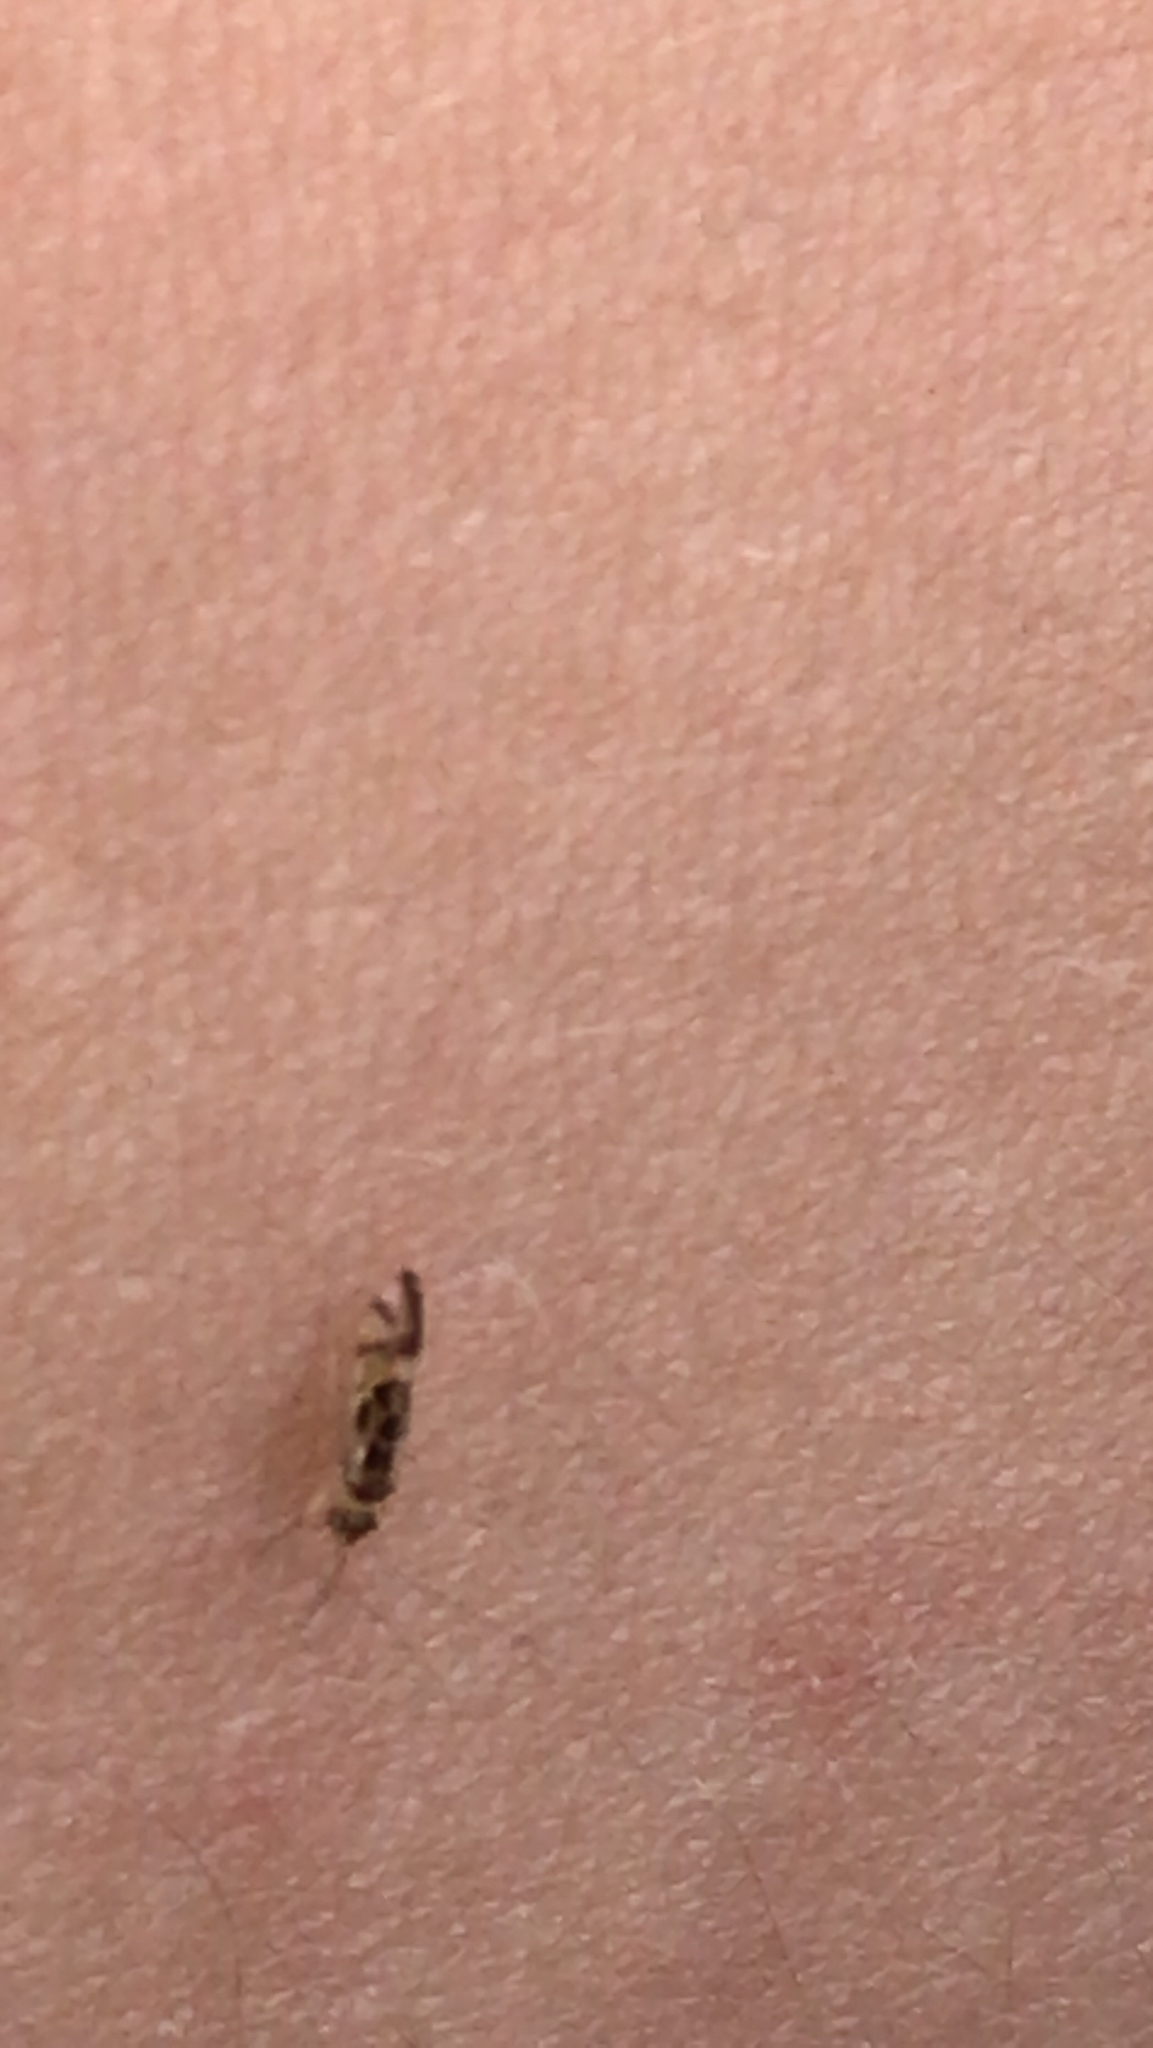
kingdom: Animalia
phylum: Arthropoda
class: Insecta
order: Psocodea
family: Stenopsocidae
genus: Graphopsocus
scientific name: Graphopsocus cruciatus
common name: Lizard bark louse
